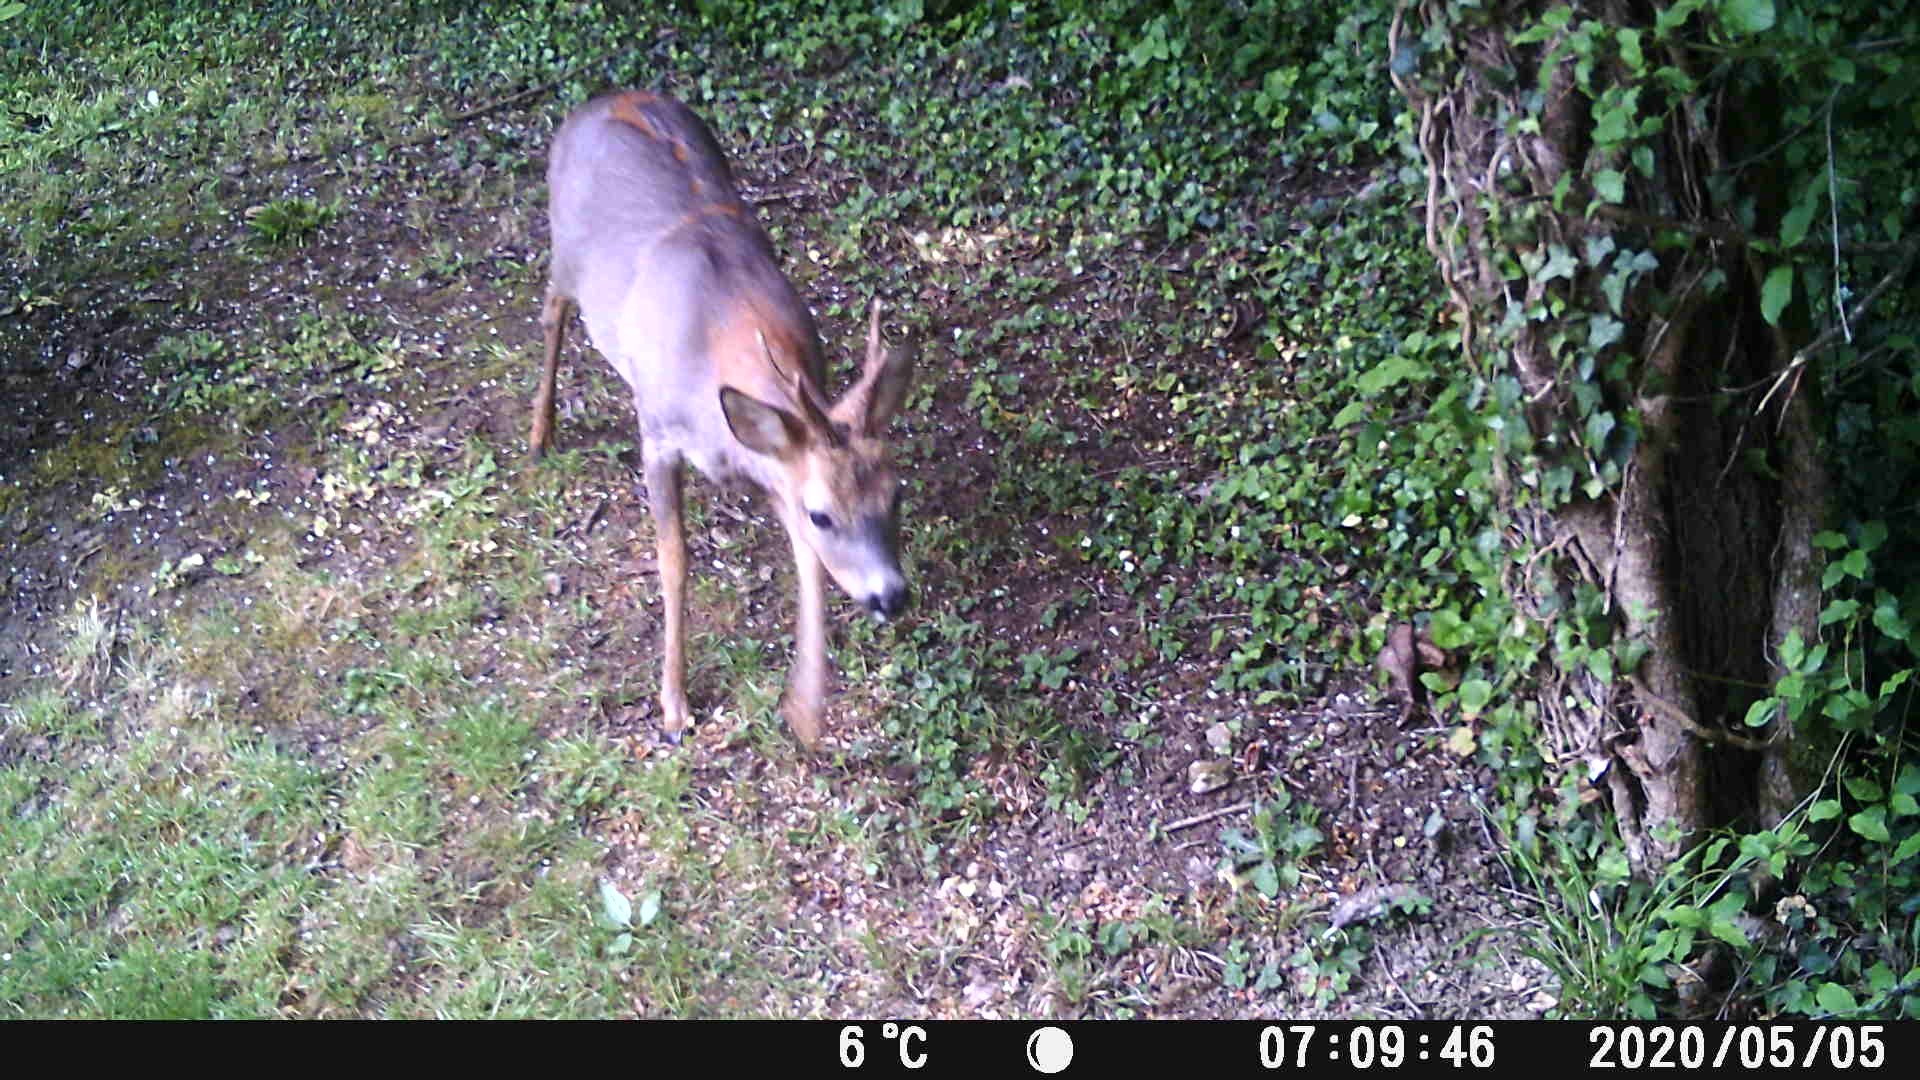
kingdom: Animalia
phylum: Chordata
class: Mammalia
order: Artiodactyla
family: Cervidae
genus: Capreolus
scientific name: Capreolus capreolus
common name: Western roe deer
